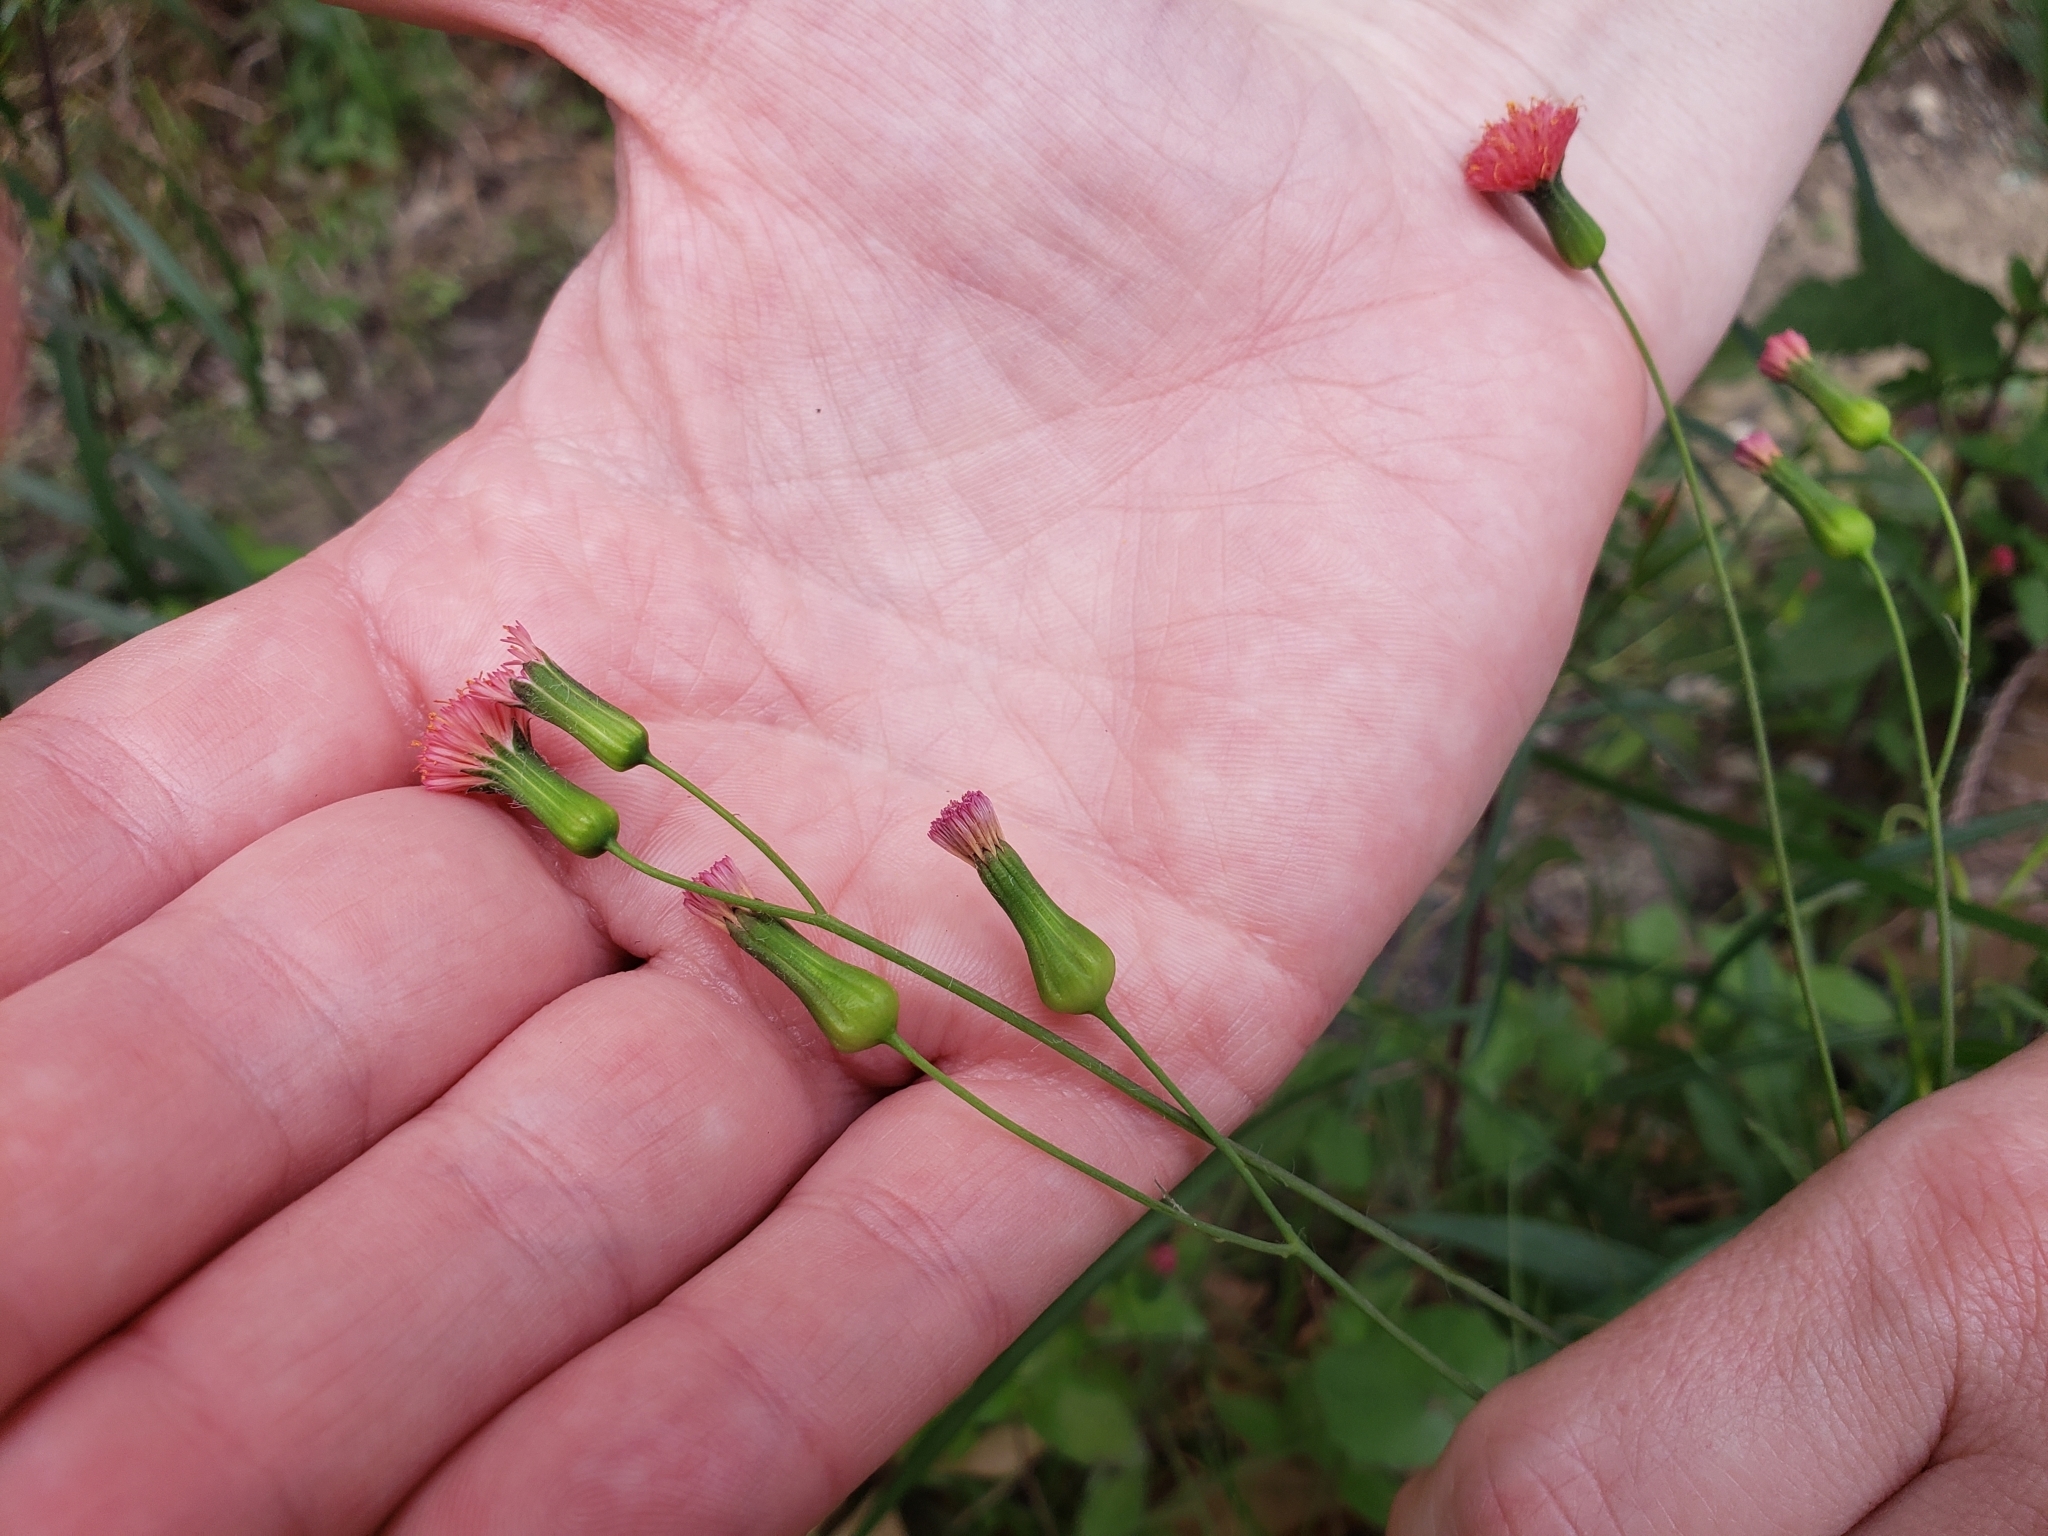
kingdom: Plantae
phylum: Tracheophyta
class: Magnoliopsida
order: Asterales
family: Asteraceae
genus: Emilia
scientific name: Emilia fosbergii
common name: Florida tasselflower
